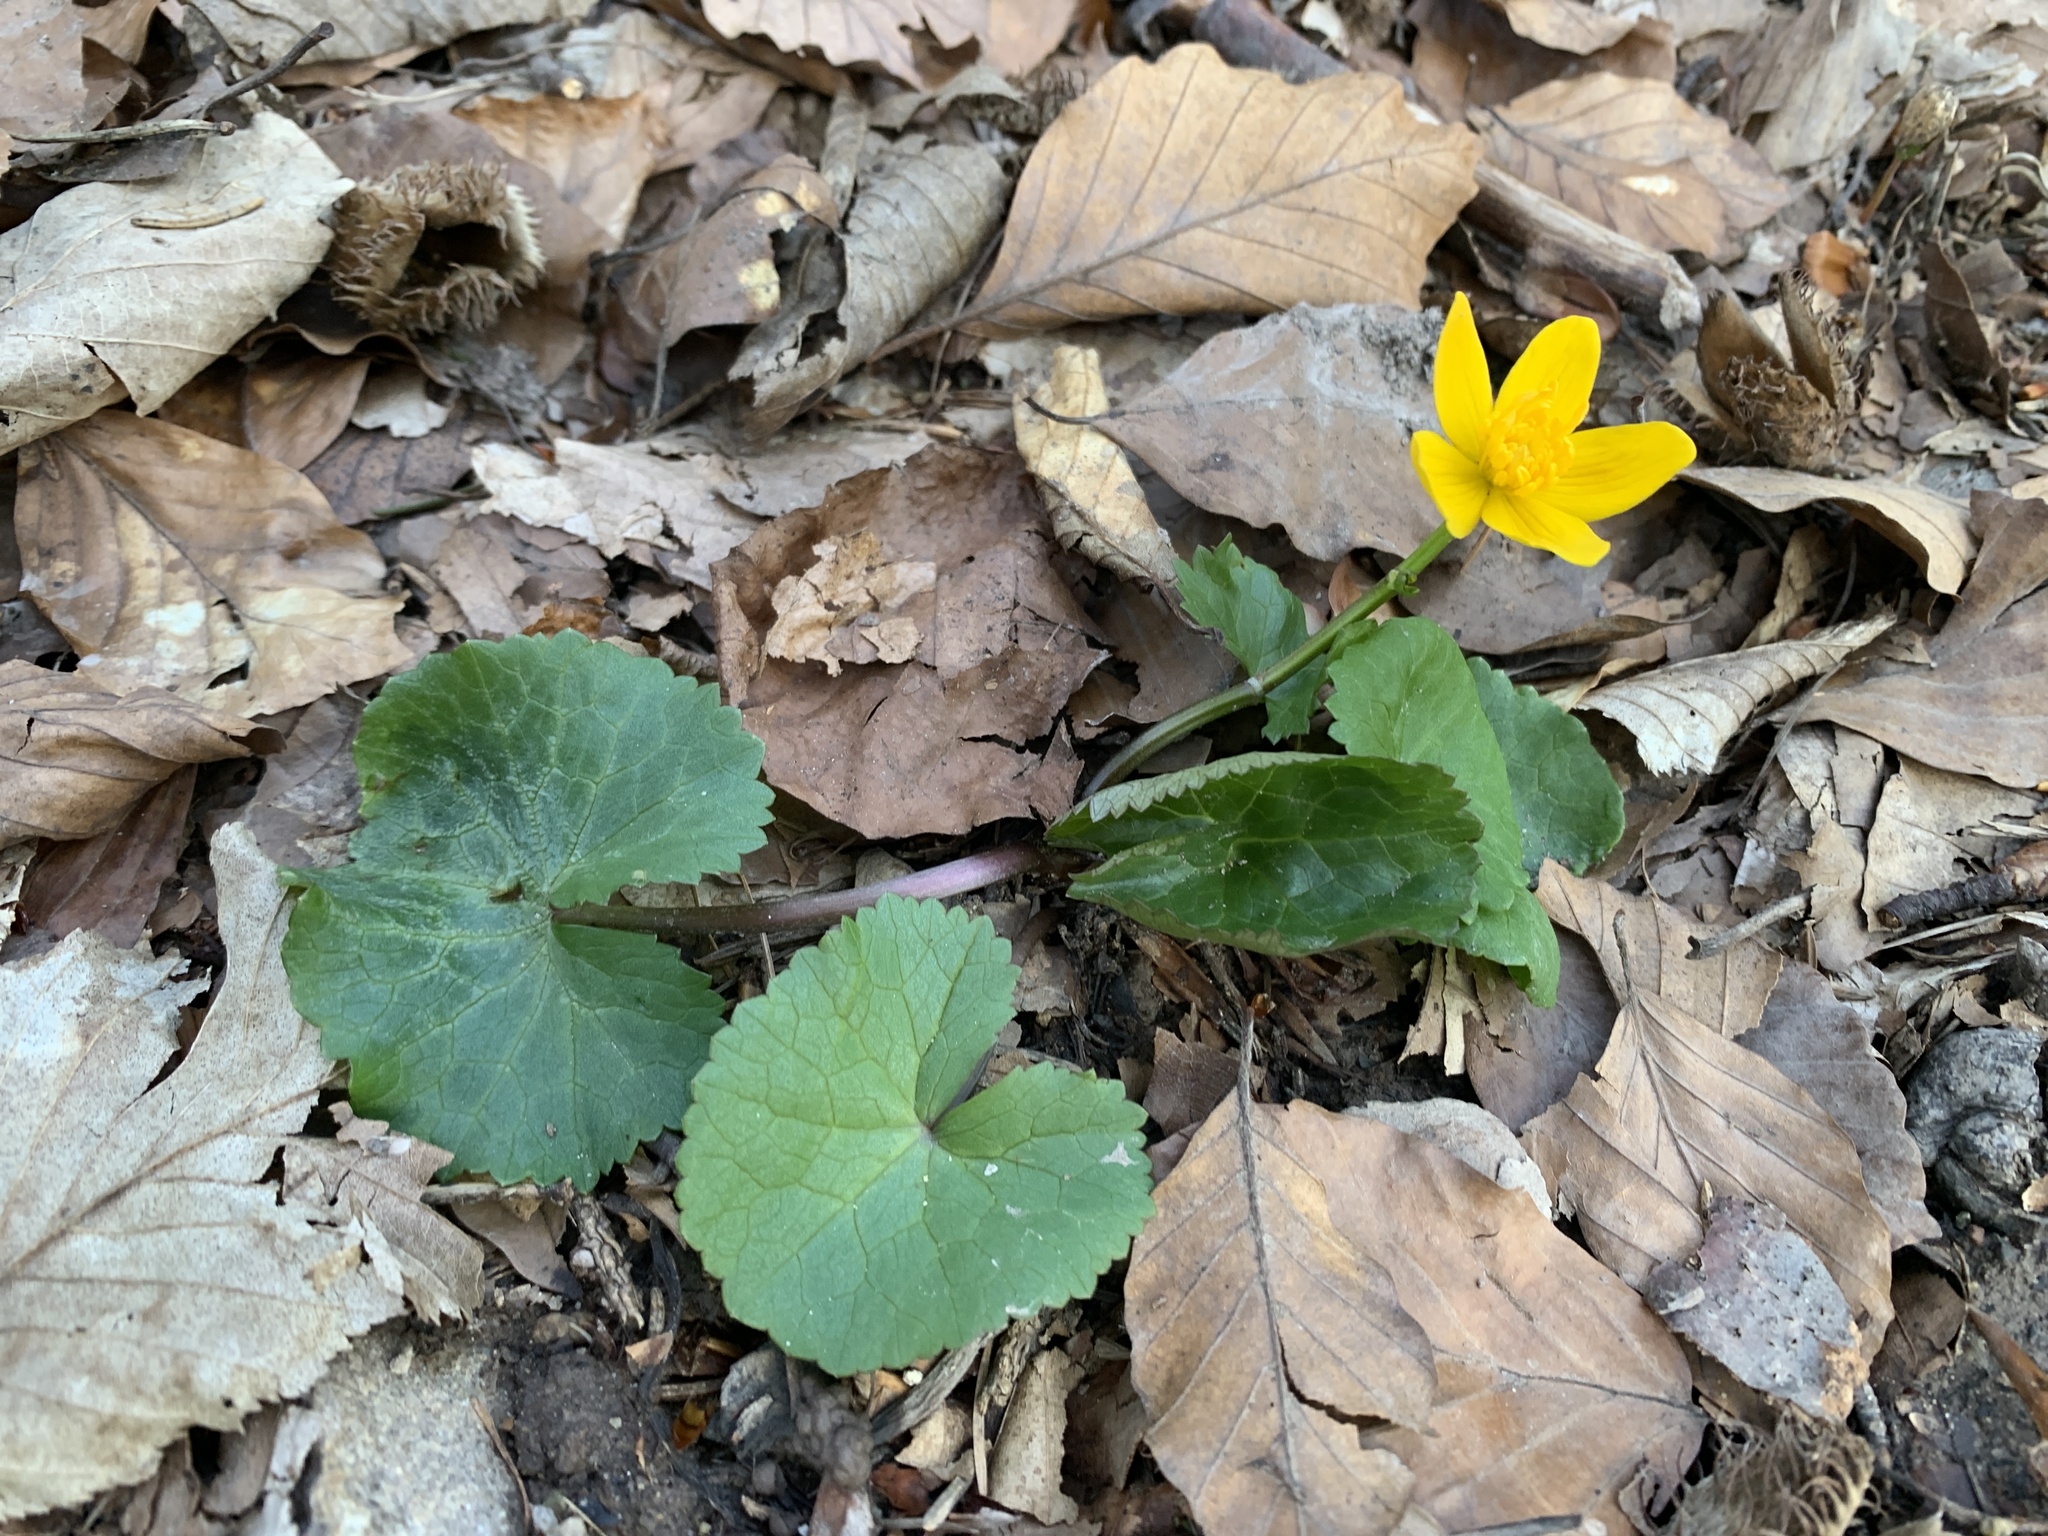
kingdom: Plantae
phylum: Tracheophyta
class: Magnoliopsida
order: Ranunculales
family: Ranunculaceae
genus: Caltha
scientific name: Caltha palustris
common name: Marsh marigold
